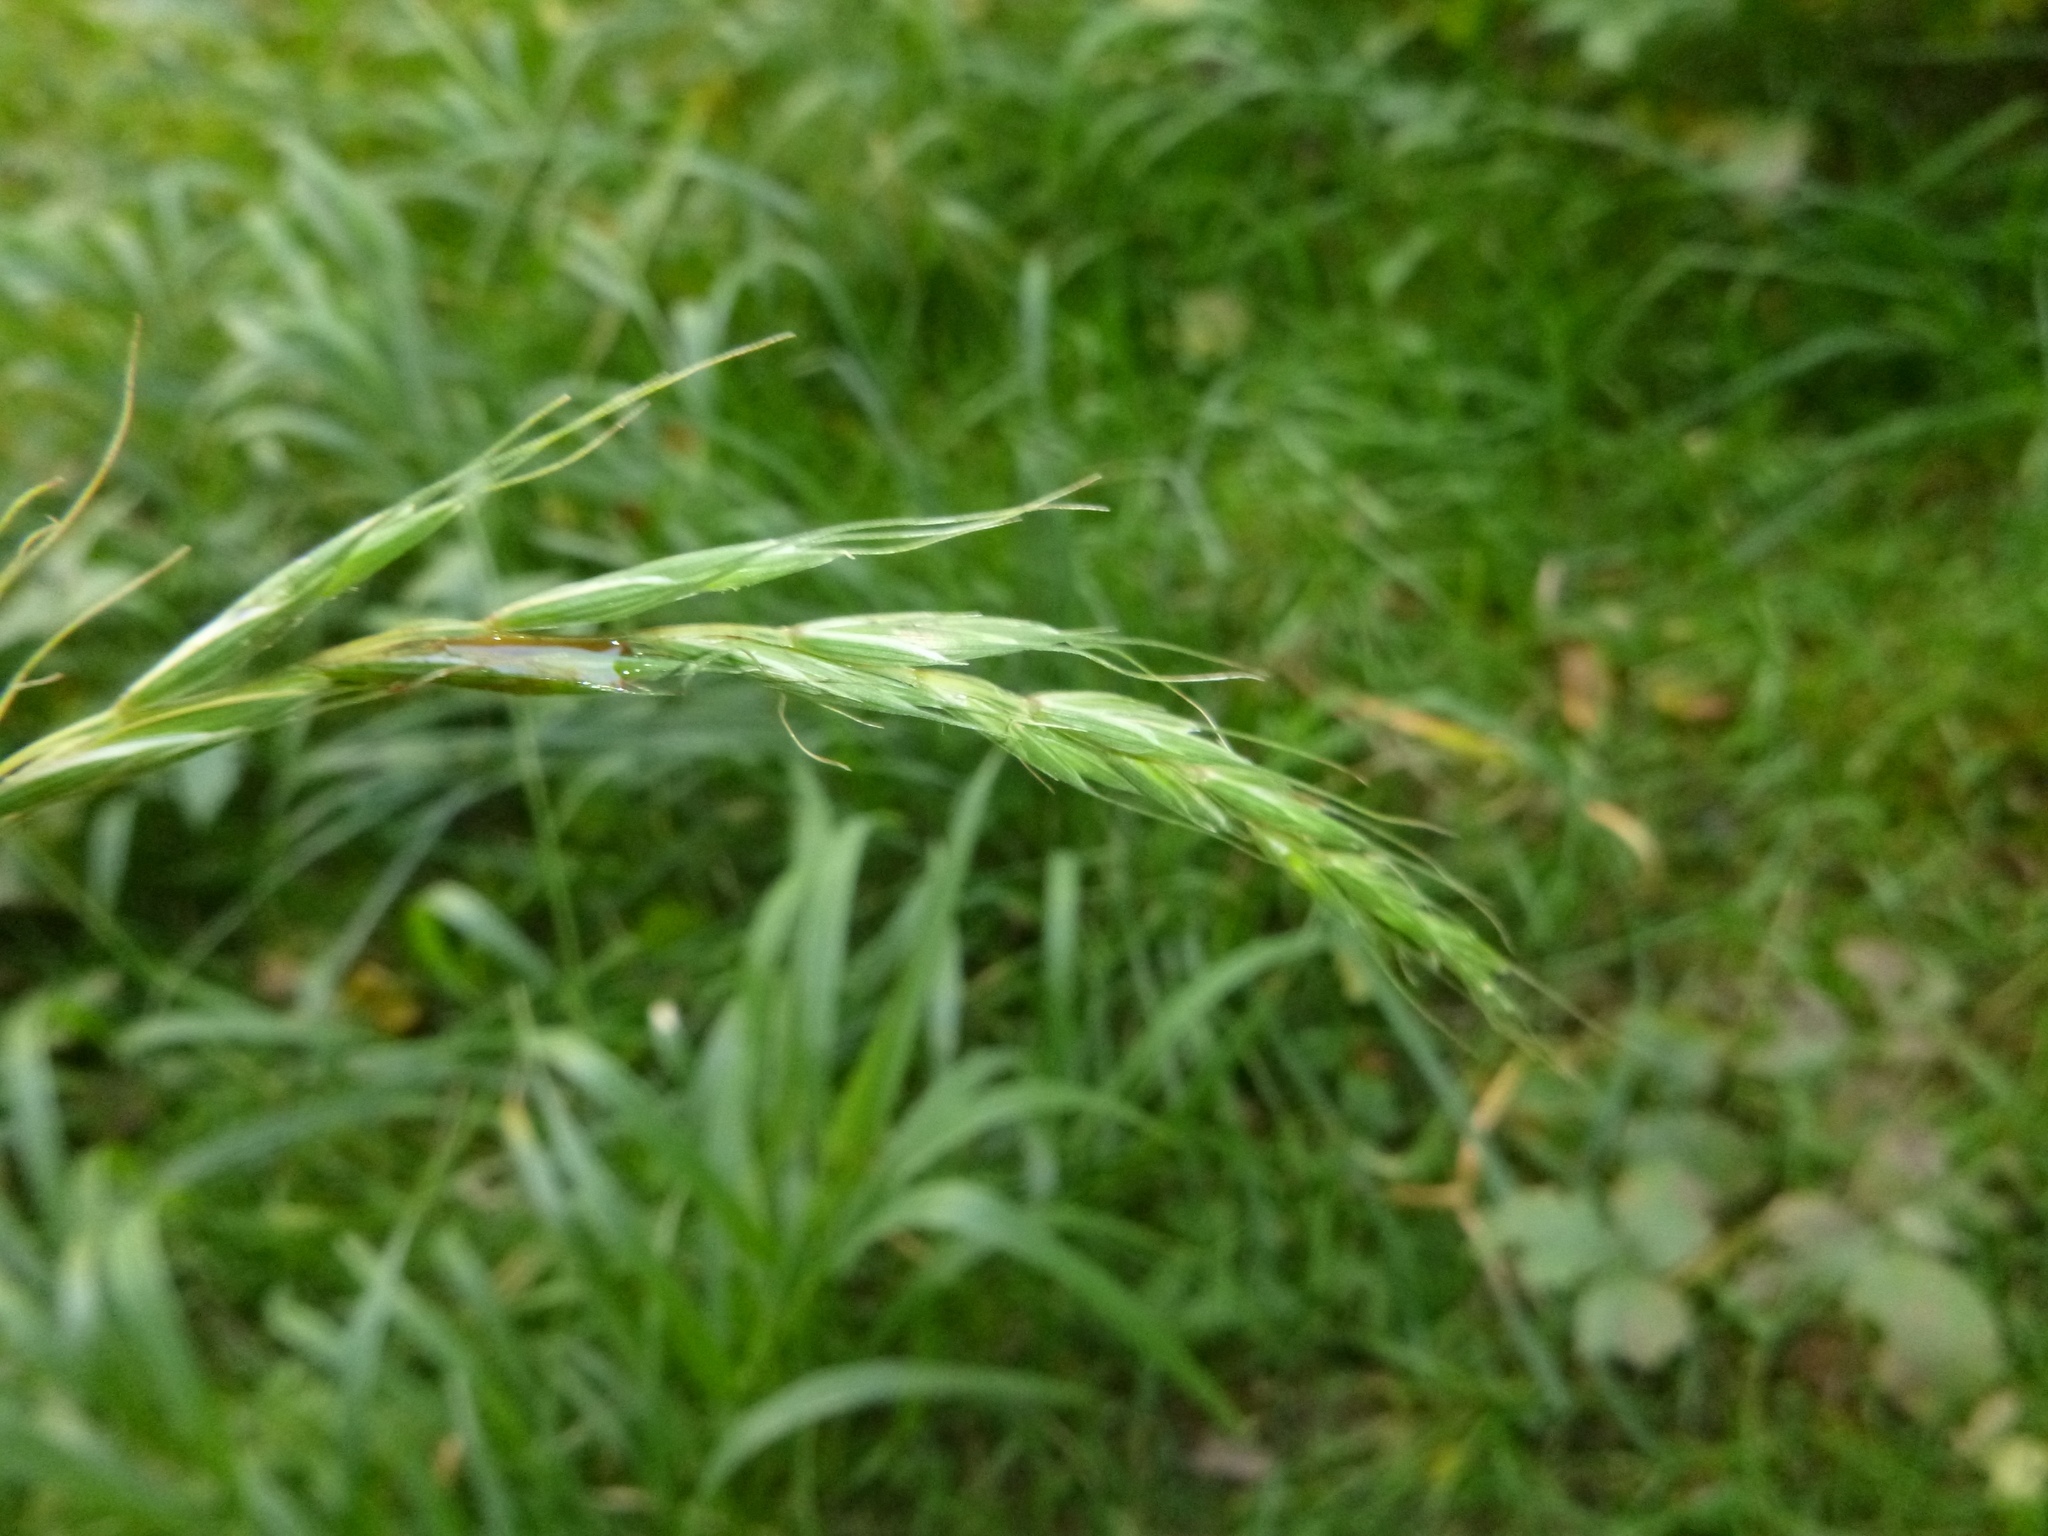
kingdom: Plantae
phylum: Tracheophyta
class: Liliopsida
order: Poales
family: Poaceae
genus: Elymus
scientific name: Elymus caninus
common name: Bearded couch
